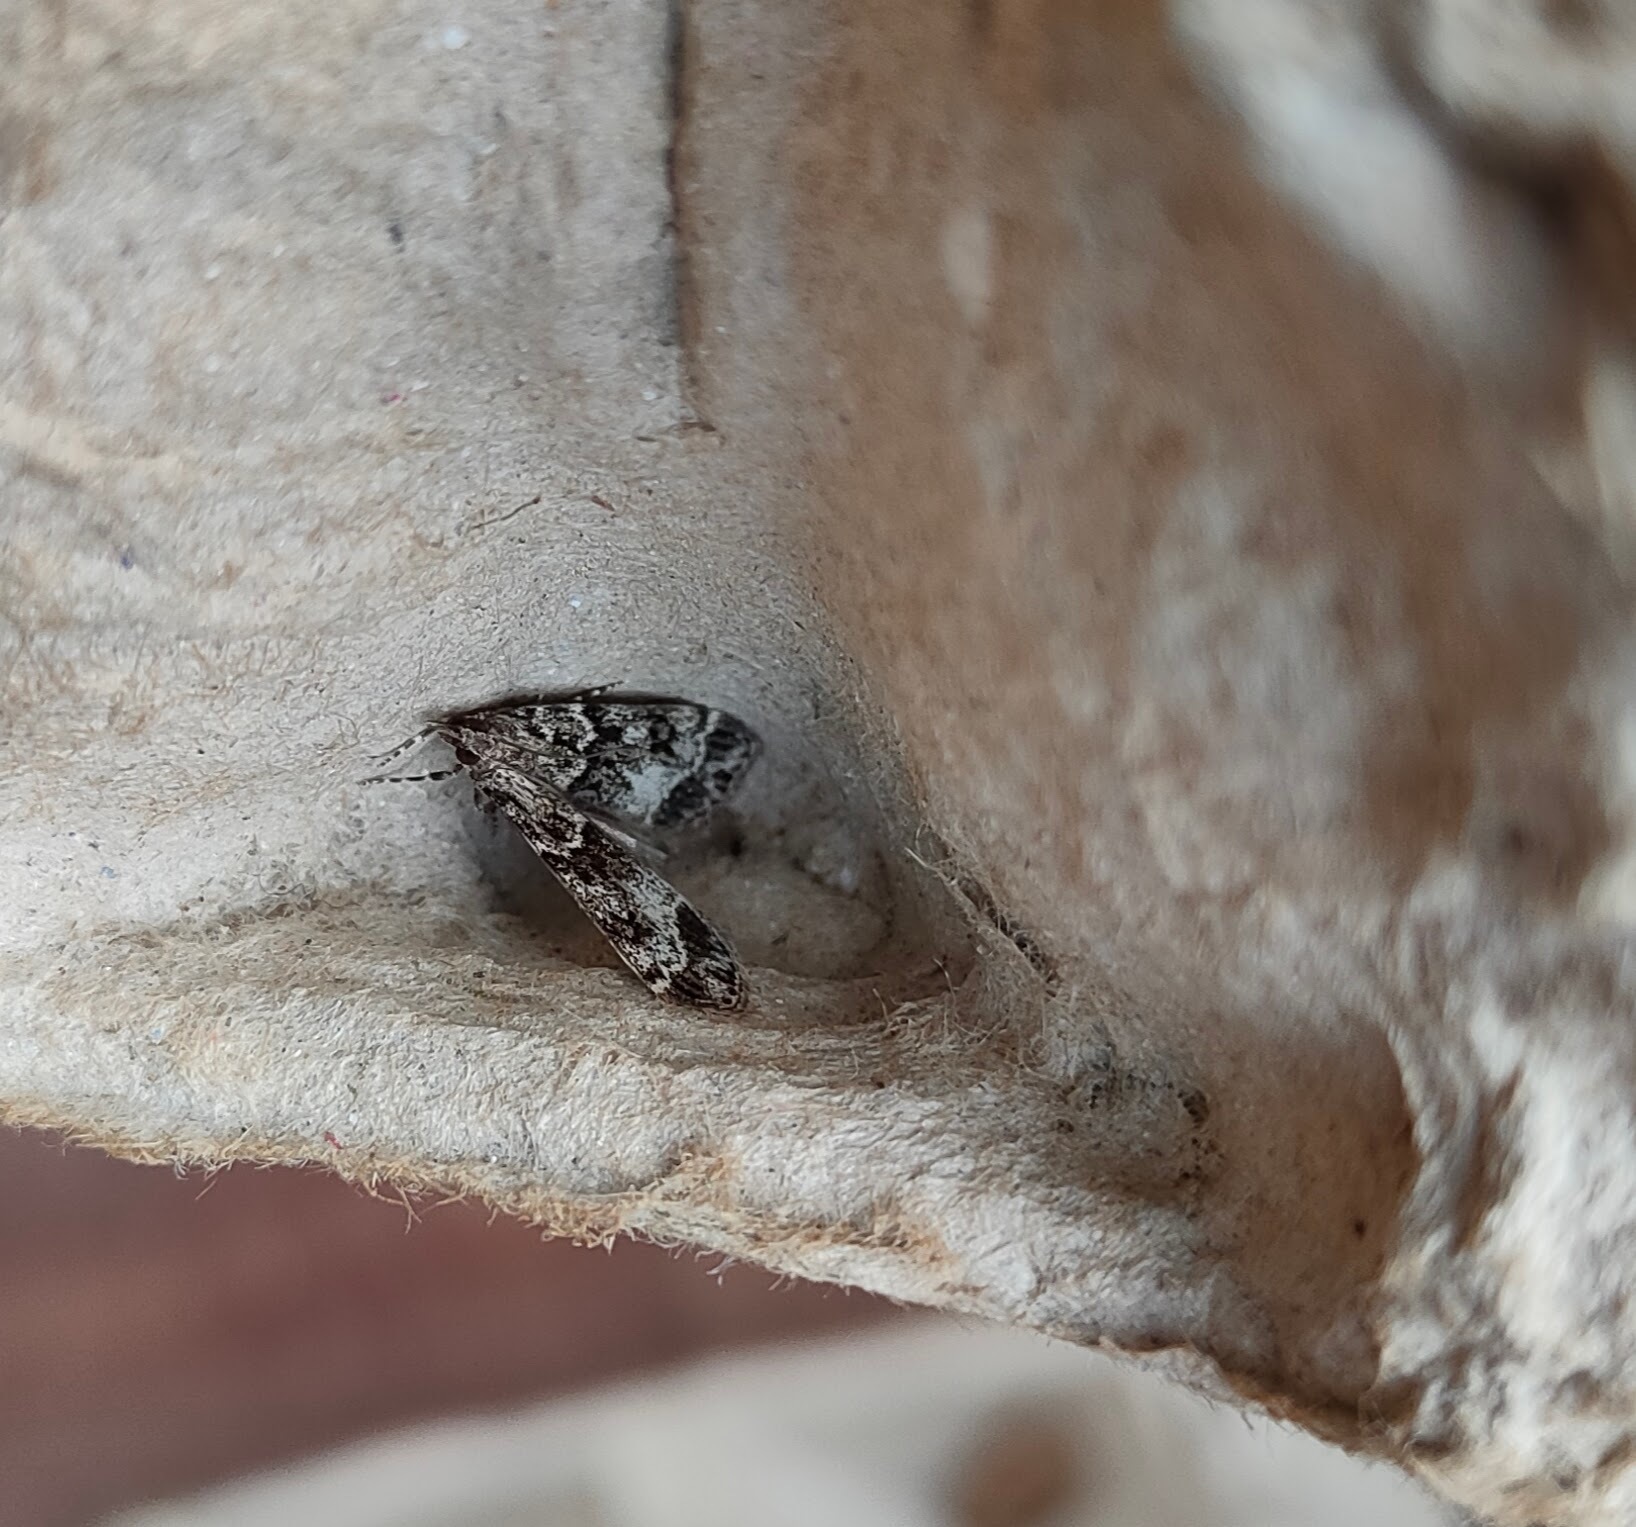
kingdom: Animalia
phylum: Arthropoda
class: Insecta
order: Lepidoptera
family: Crambidae
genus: Eudonia
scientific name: Eudonia mercurella
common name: Small grey
